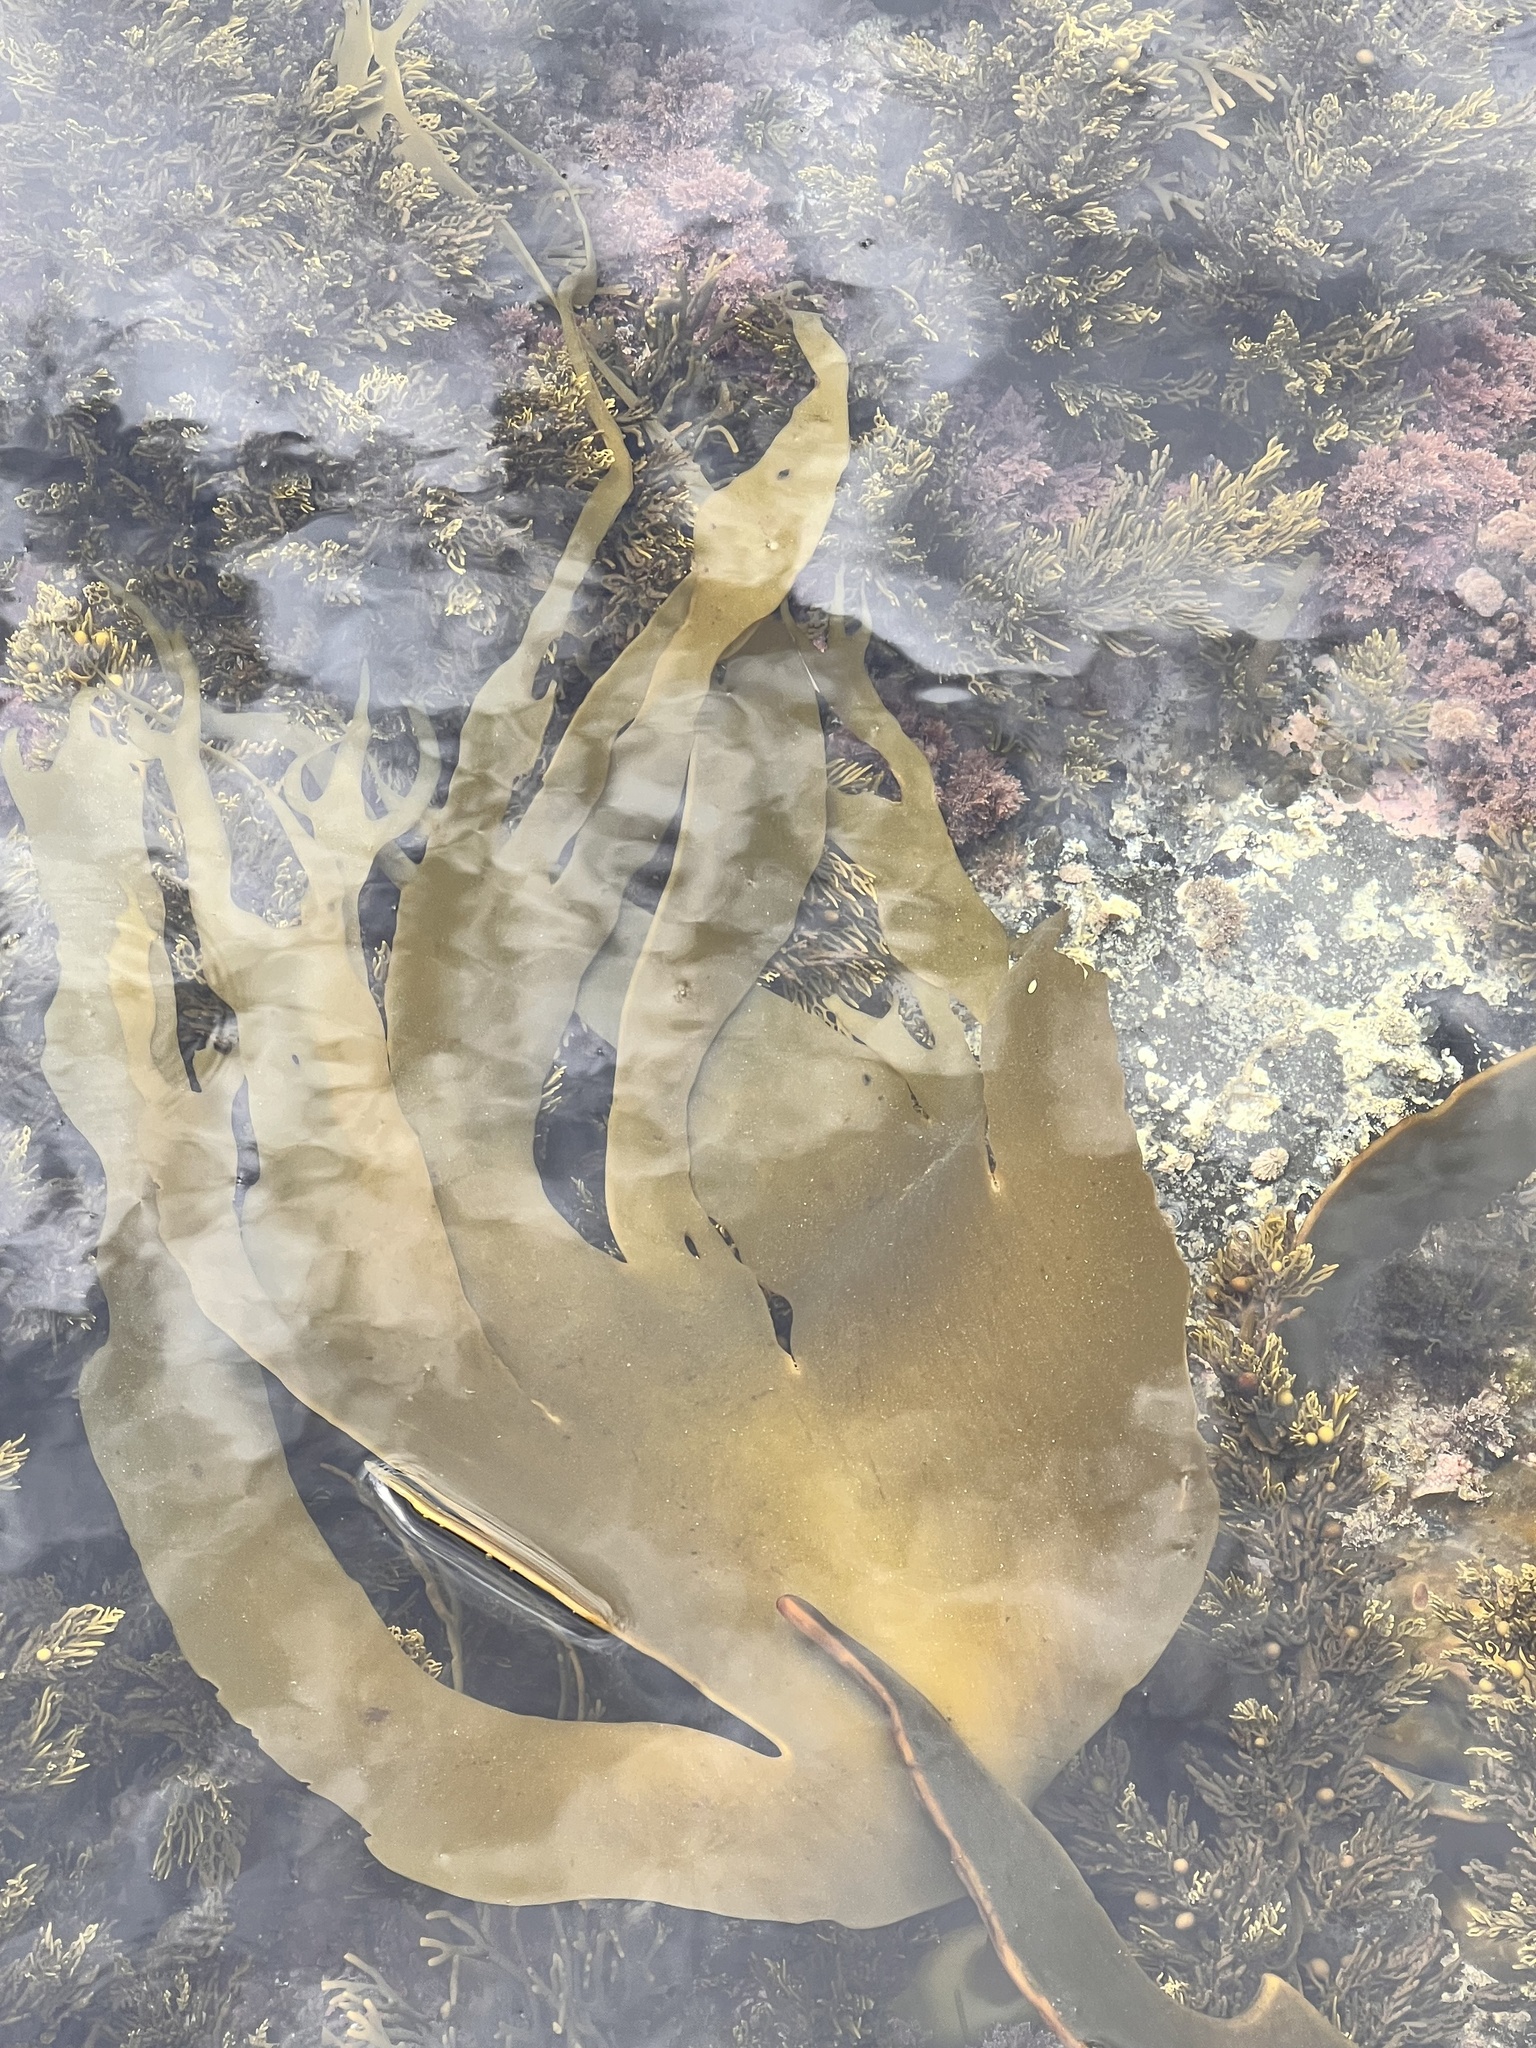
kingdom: Chromista
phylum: Ochrophyta
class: Phaeophyceae
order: Fucales
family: Durvillaeaceae
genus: Durvillaea
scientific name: Durvillaea antarctica
